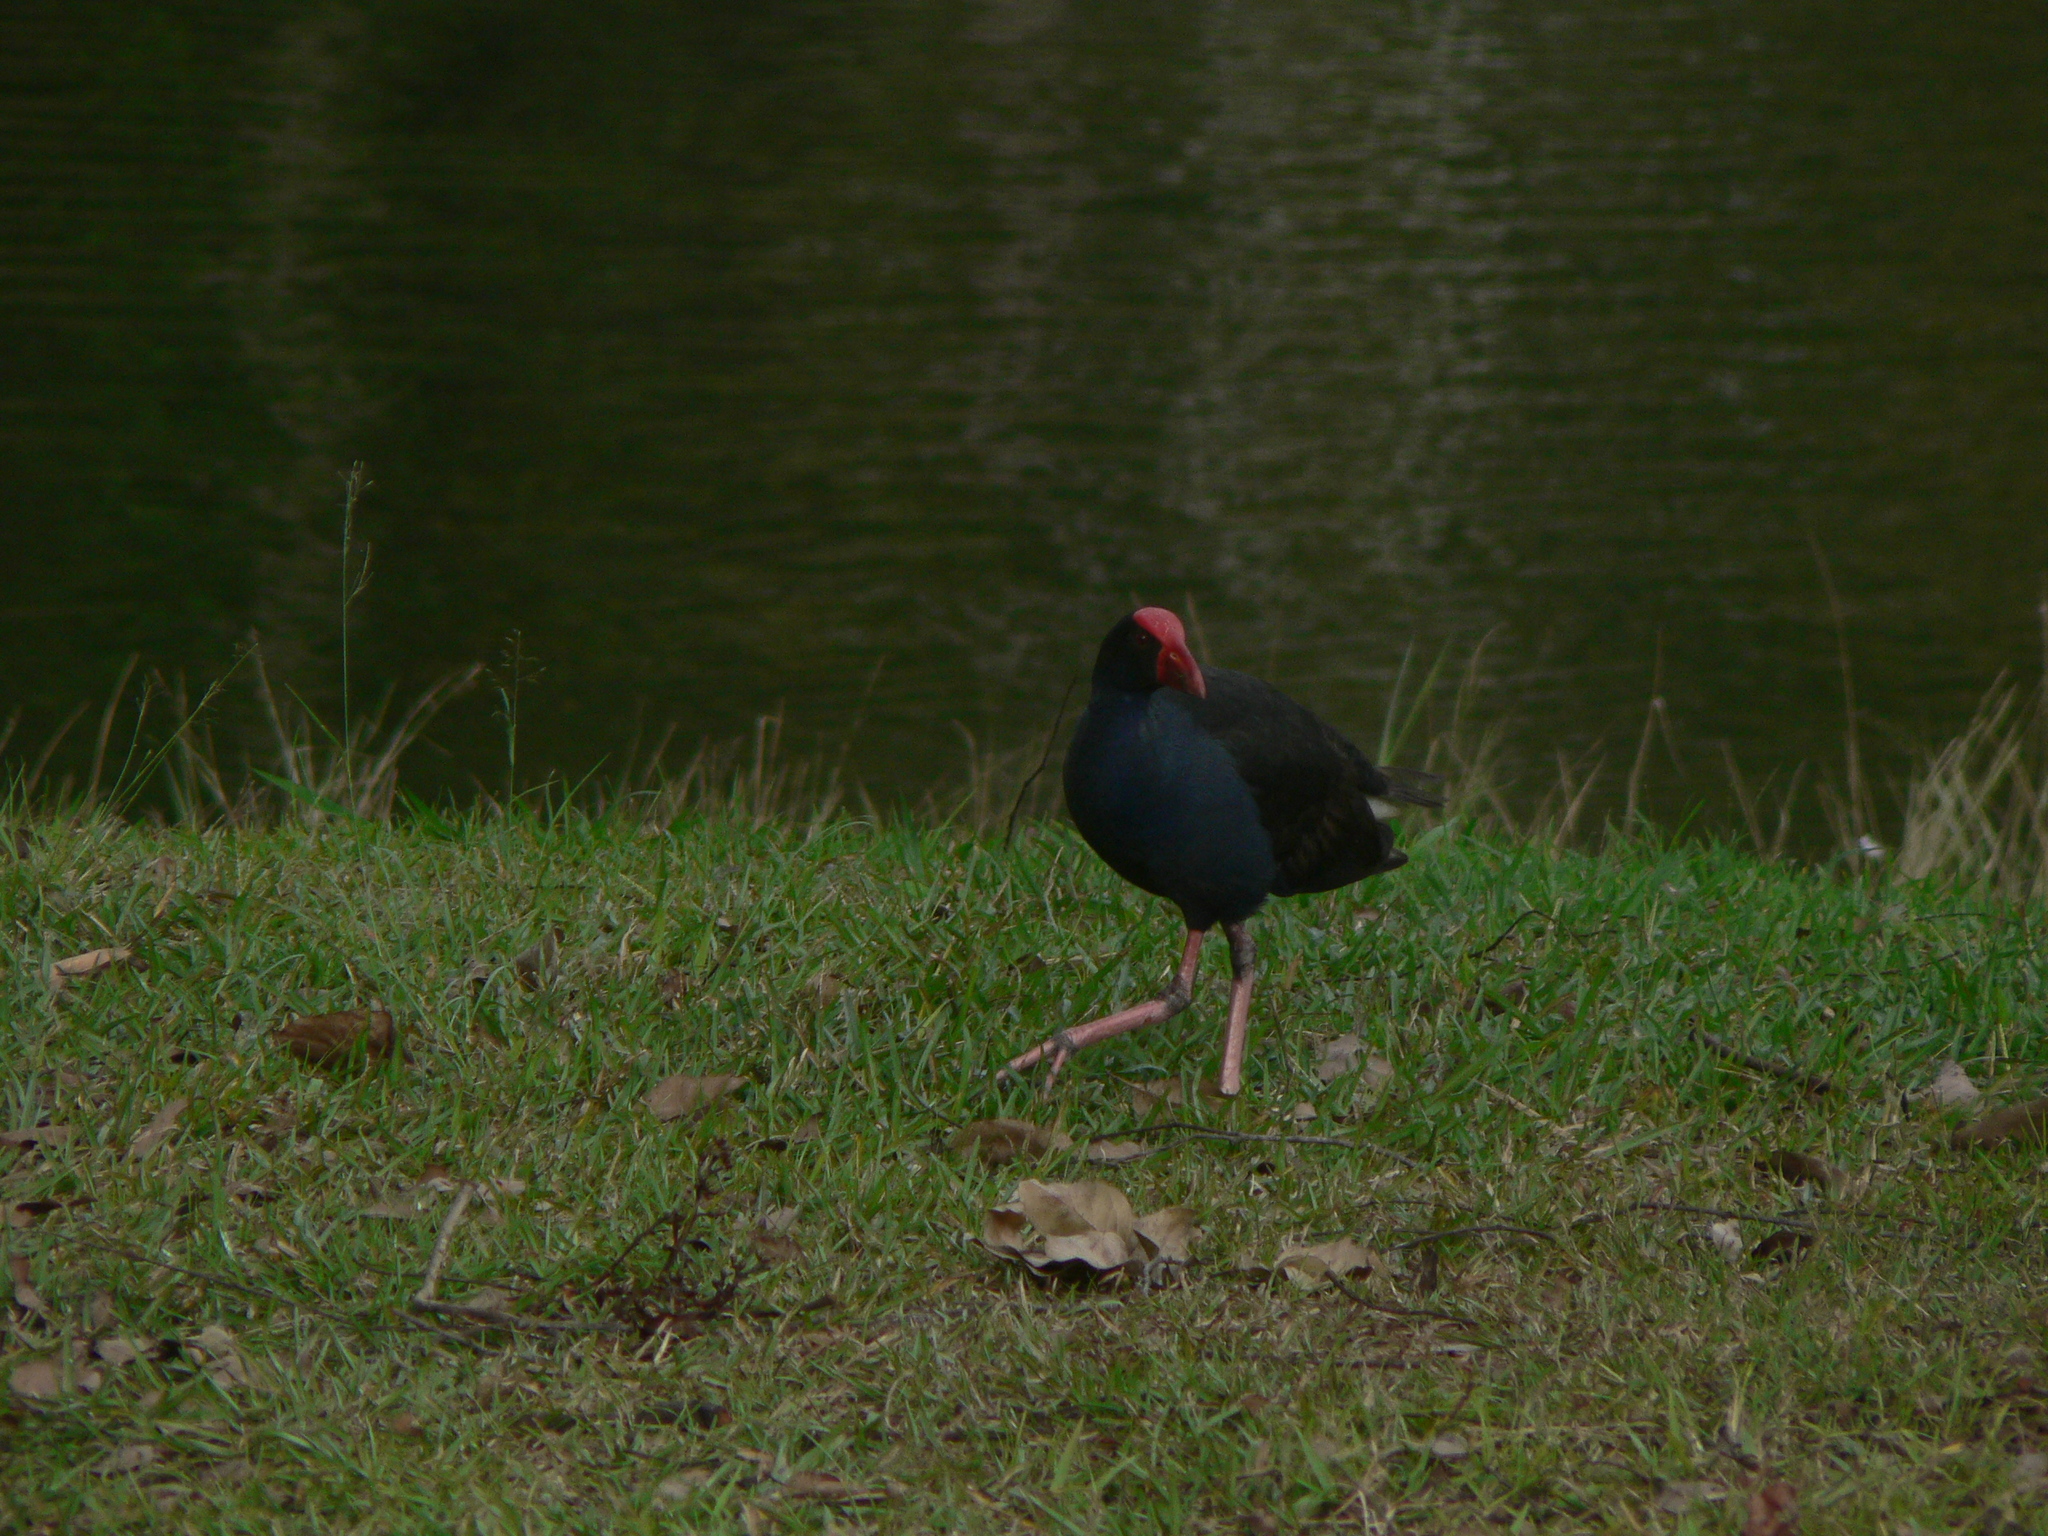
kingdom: Animalia
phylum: Chordata
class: Aves
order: Gruiformes
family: Rallidae
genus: Porphyrio
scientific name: Porphyrio melanotus
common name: Australasian swamphen
